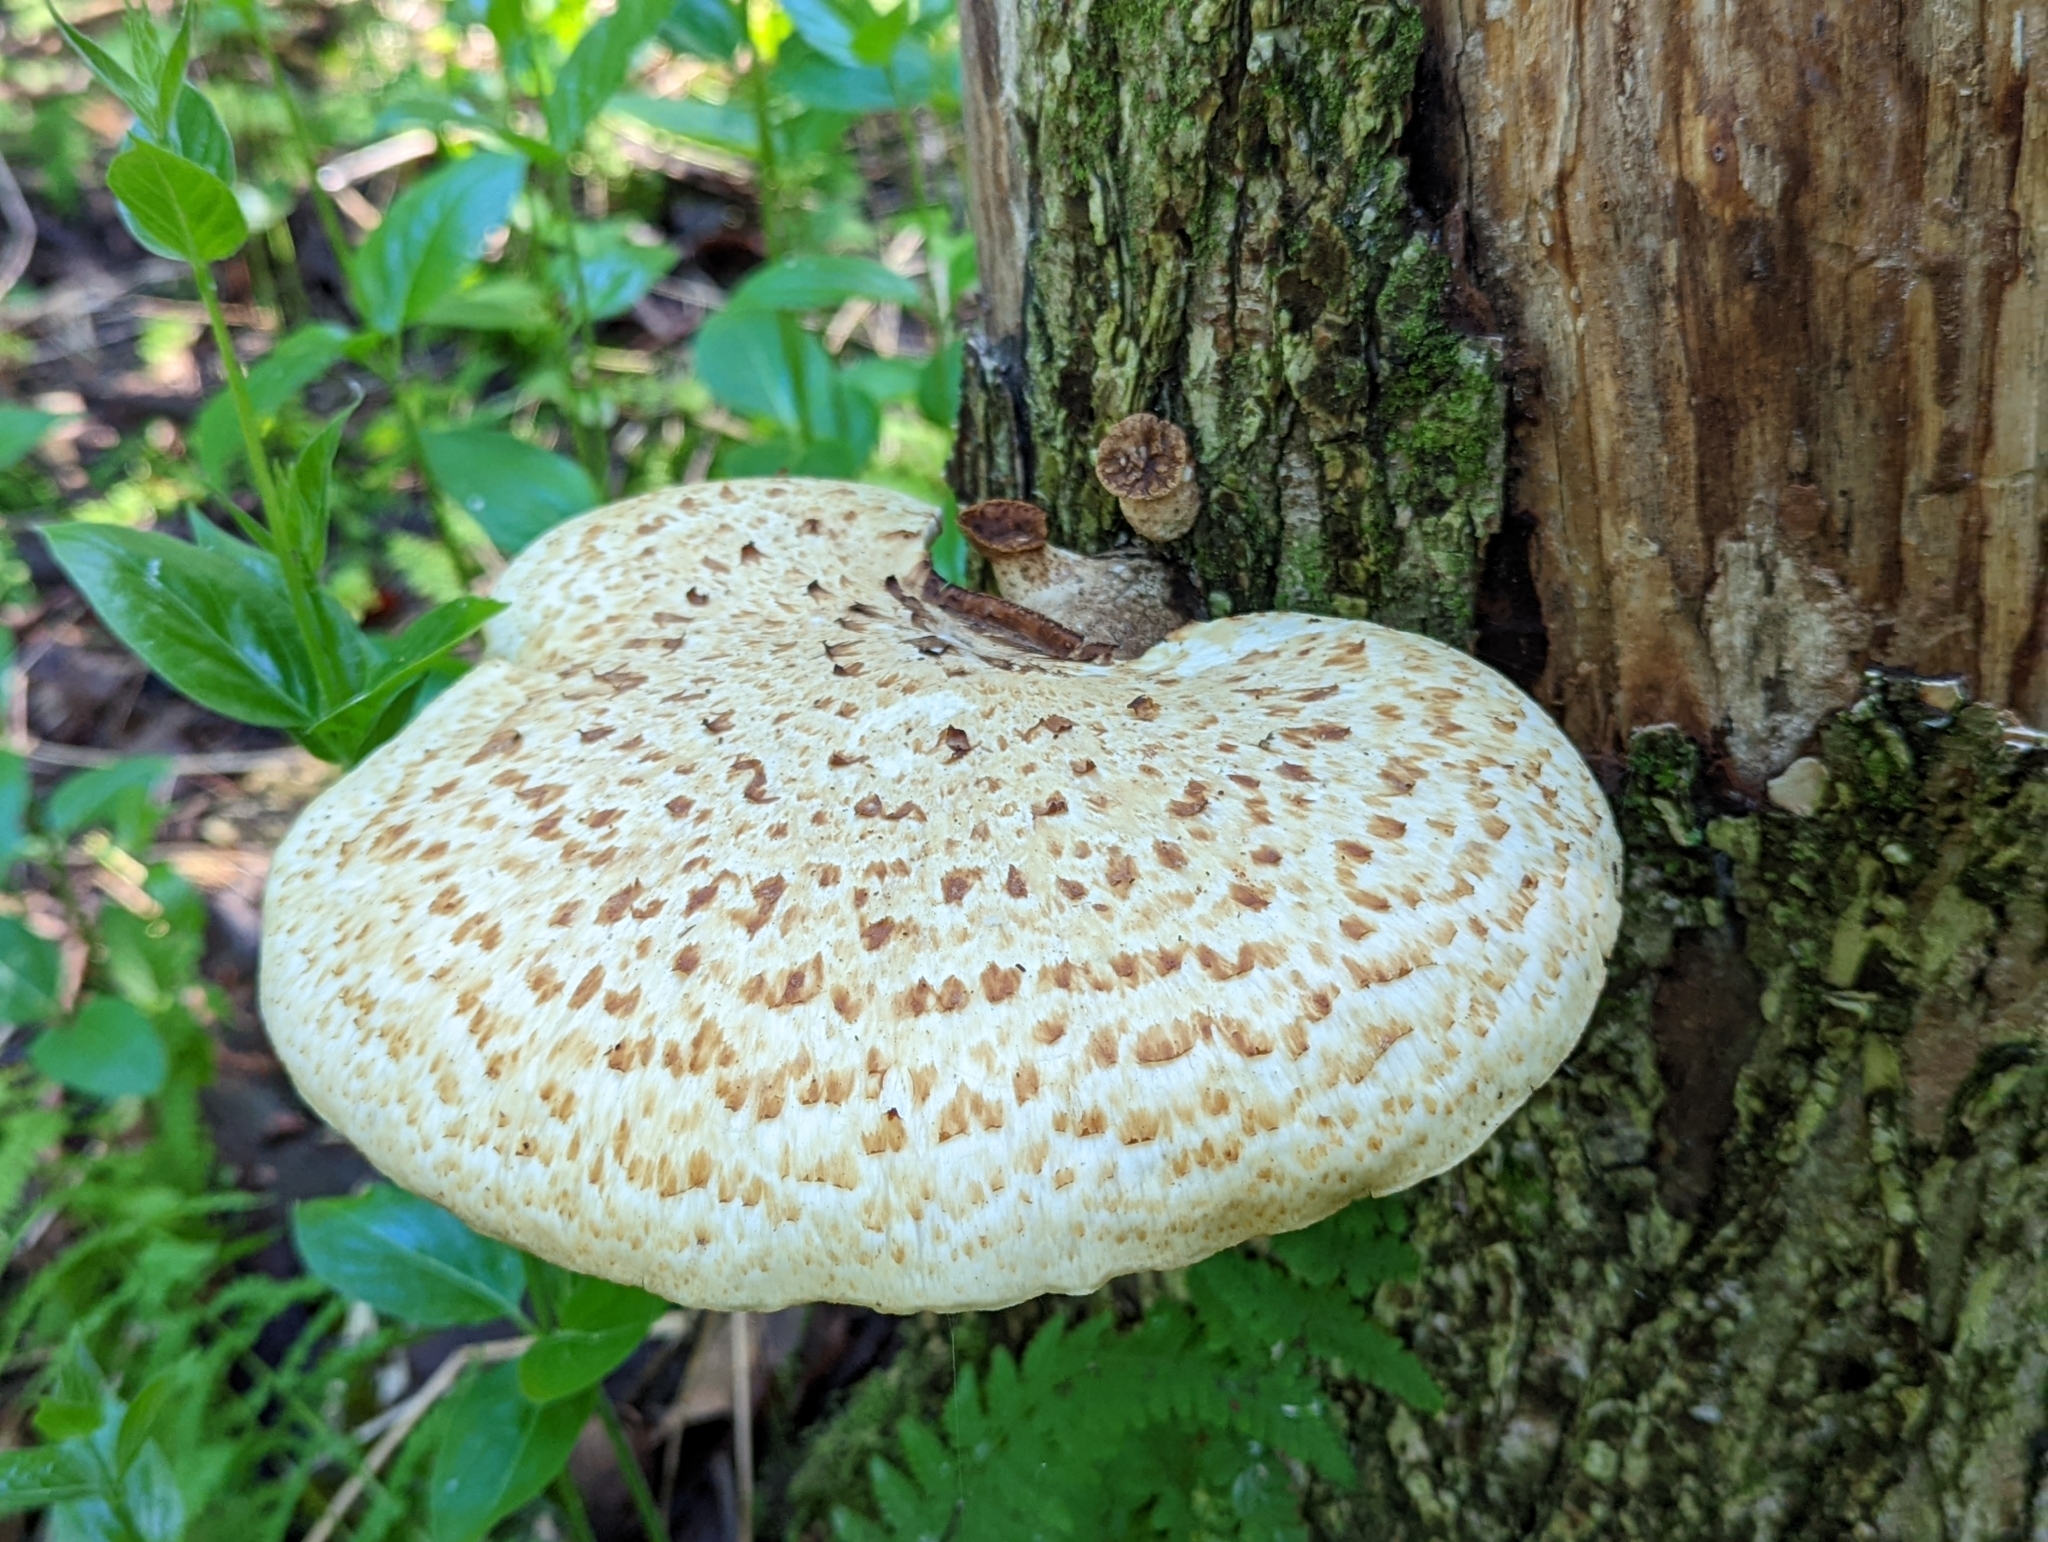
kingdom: Fungi
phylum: Basidiomycota
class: Agaricomycetes
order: Polyporales
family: Polyporaceae
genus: Cerioporus
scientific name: Cerioporus squamosus
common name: Dryad's saddle
